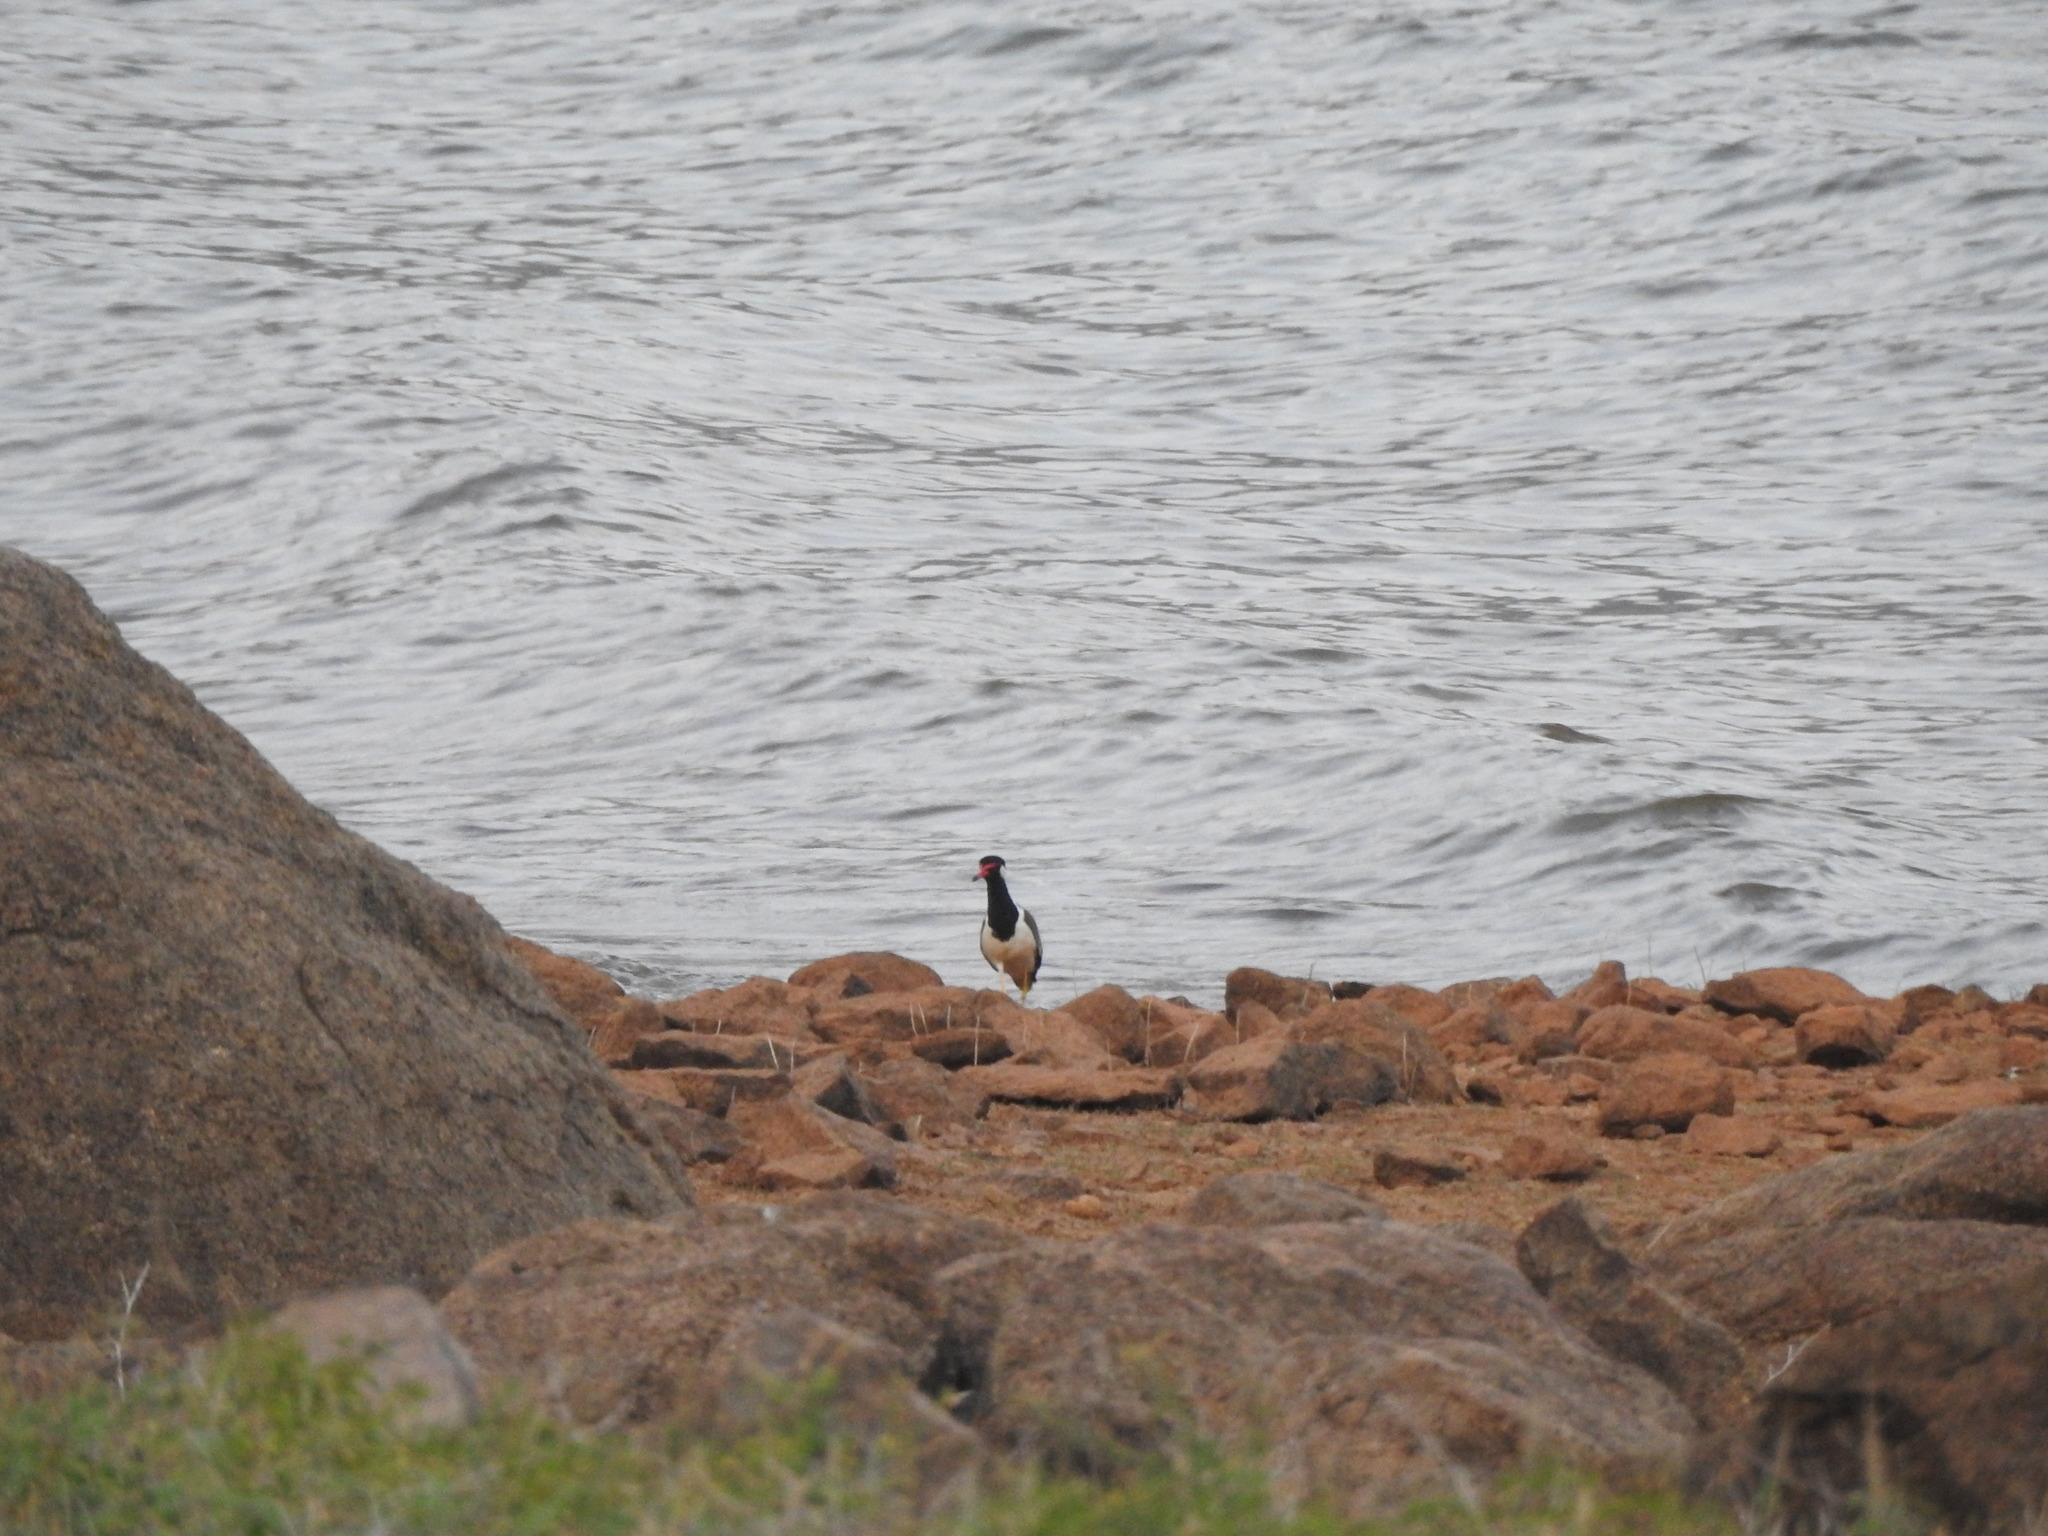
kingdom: Animalia
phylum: Chordata
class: Aves
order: Charadriiformes
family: Charadriidae
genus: Vanellus
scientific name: Vanellus indicus
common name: Red-wattled lapwing
